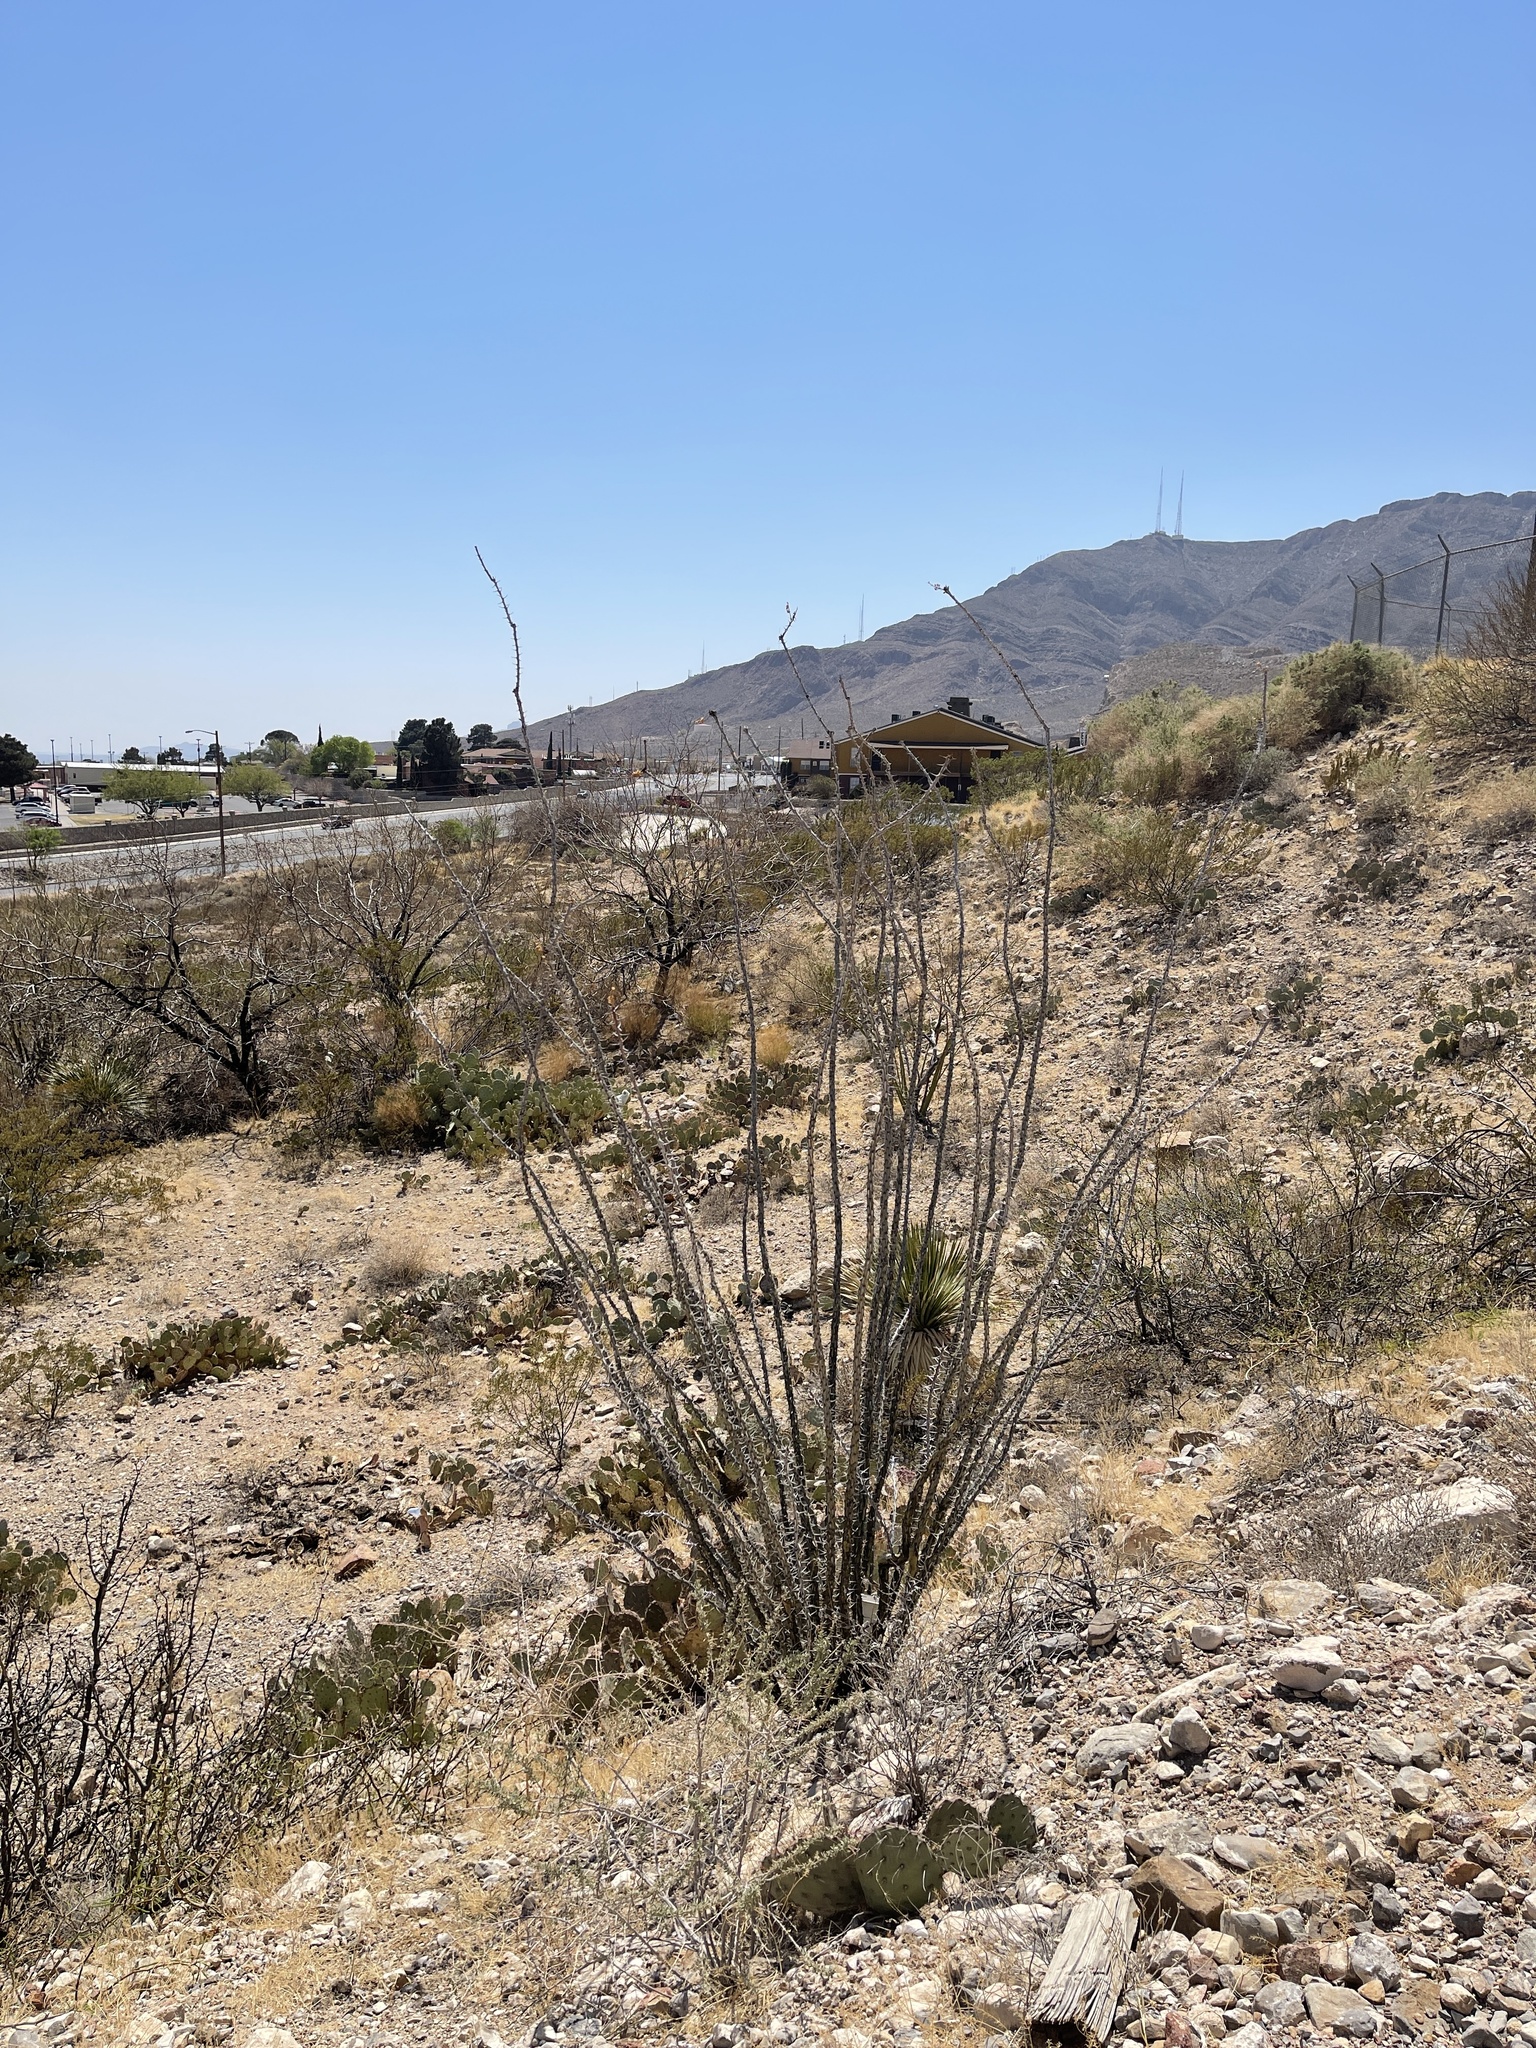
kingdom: Plantae
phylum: Tracheophyta
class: Magnoliopsida
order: Ericales
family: Fouquieriaceae
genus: Fouquieria
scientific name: Fouquieria splendens
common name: Vine-cactus
